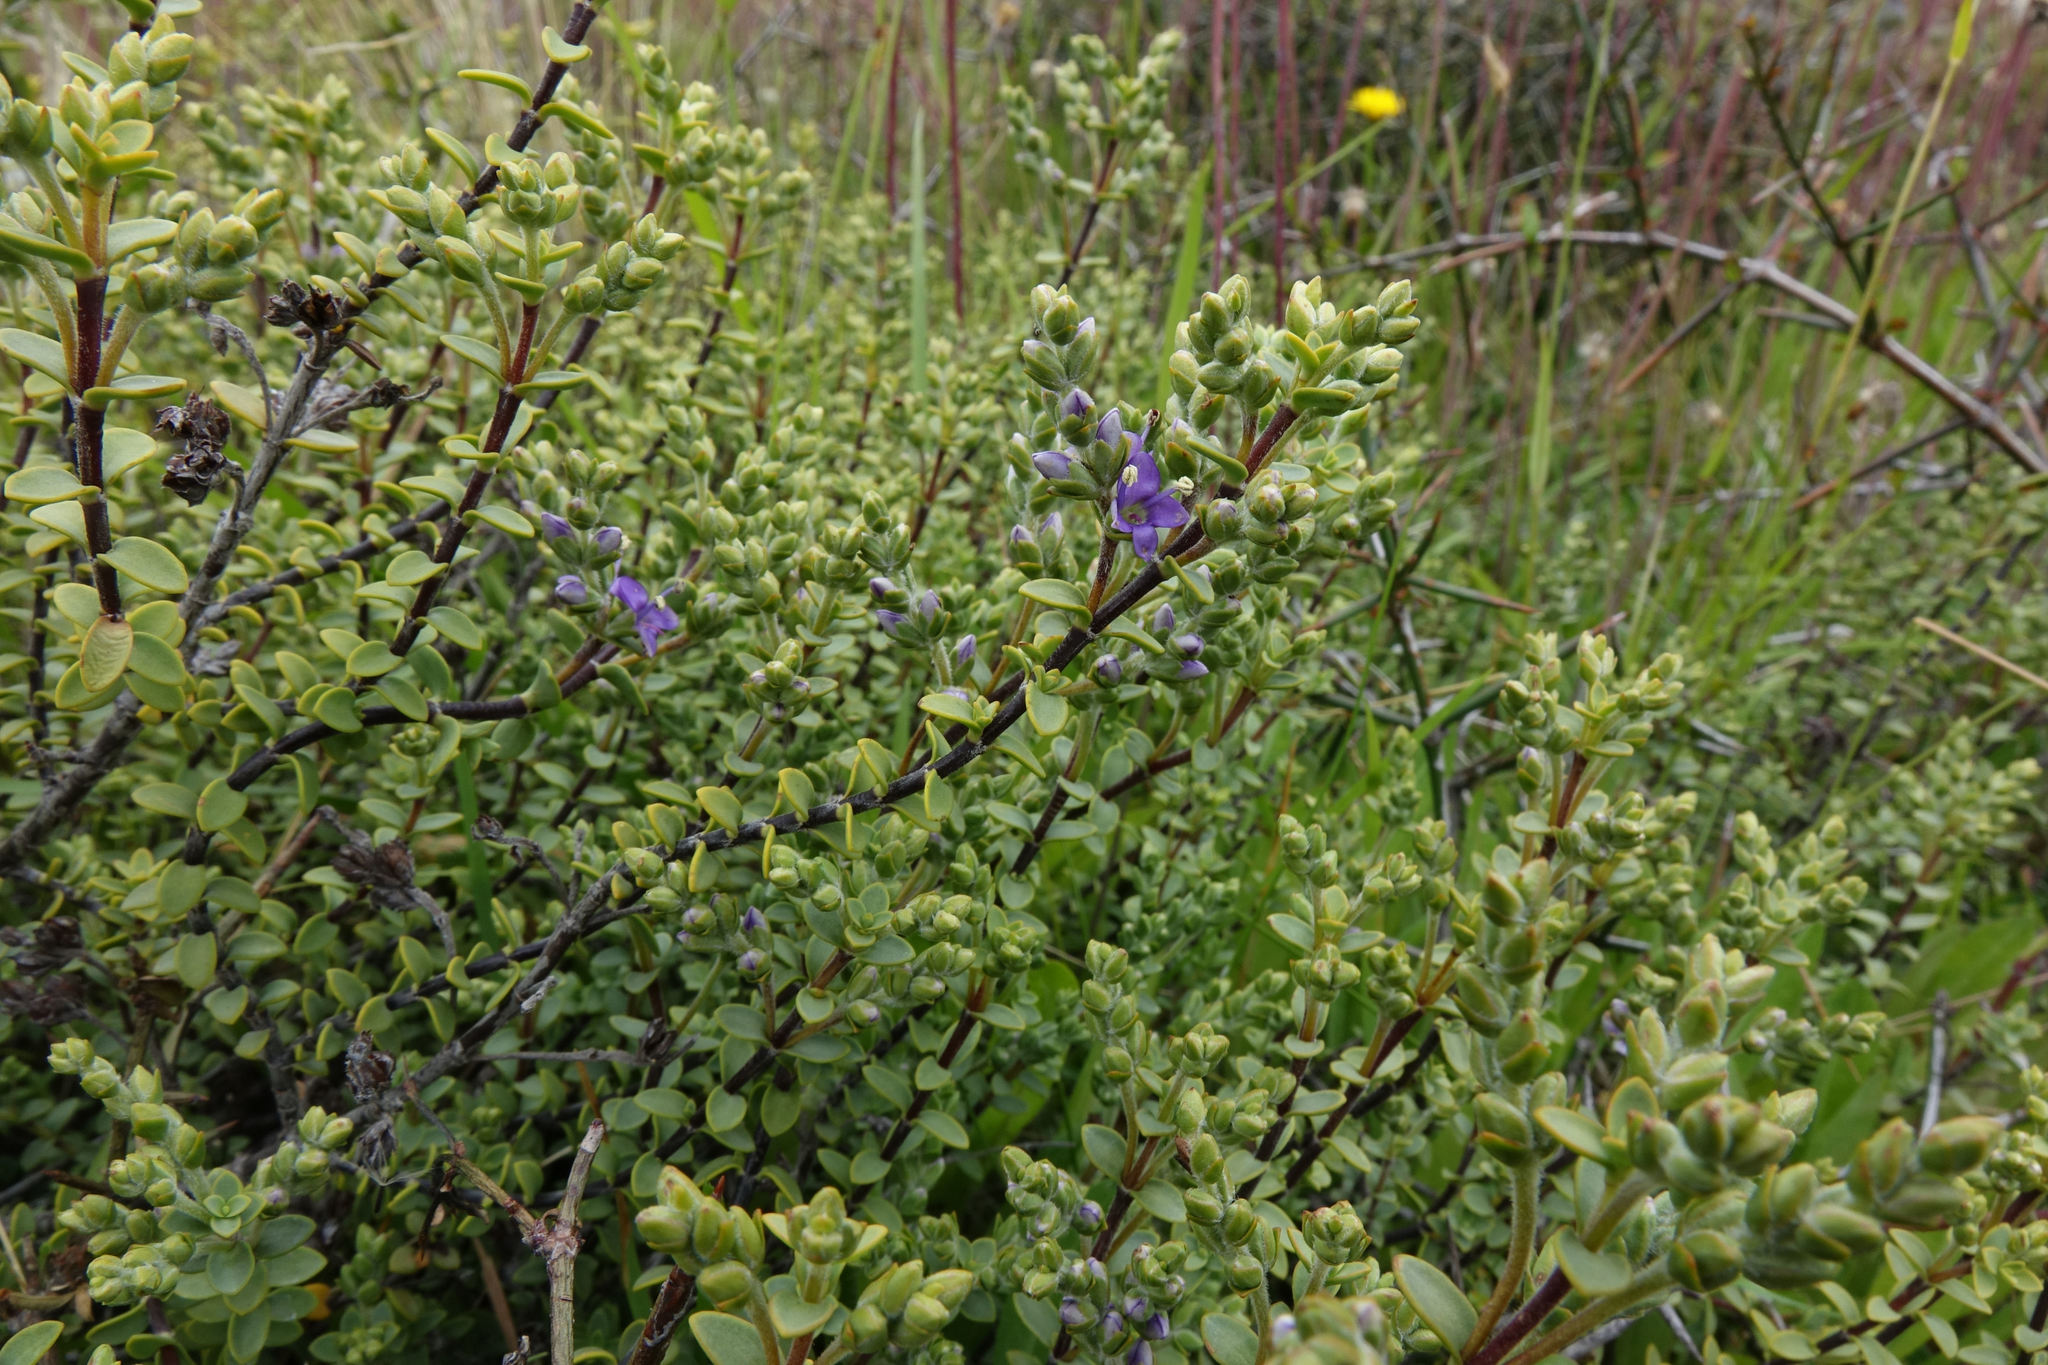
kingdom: Plantae
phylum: Tracheophyta
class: Magnoliopsida
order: Lamiales
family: Plantaginaceae
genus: Veronica
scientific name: Veronica pimeleoides
